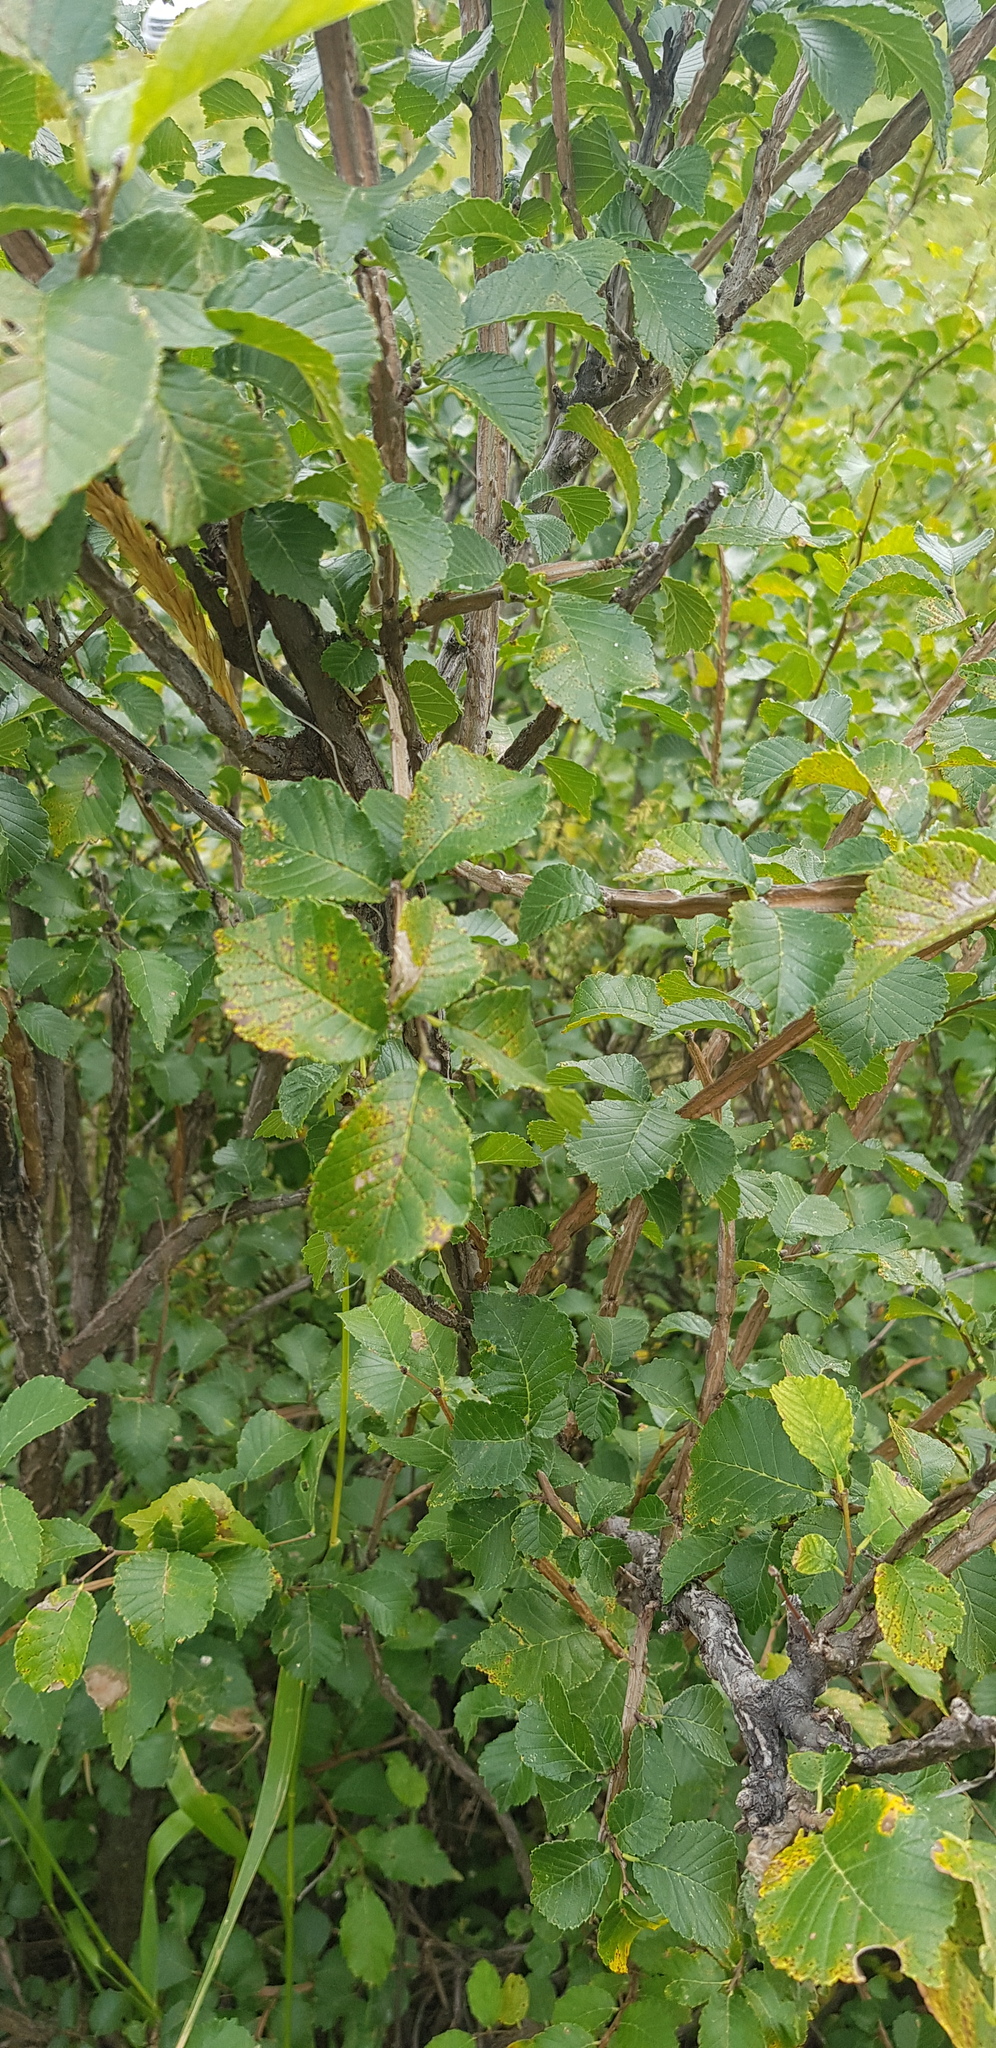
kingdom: Plantae
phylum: Tracheophyta
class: Magnoliopsida
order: Rosales
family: Ulmaceae
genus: Ulmus
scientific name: Ulmus pumila
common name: Siberian elm
